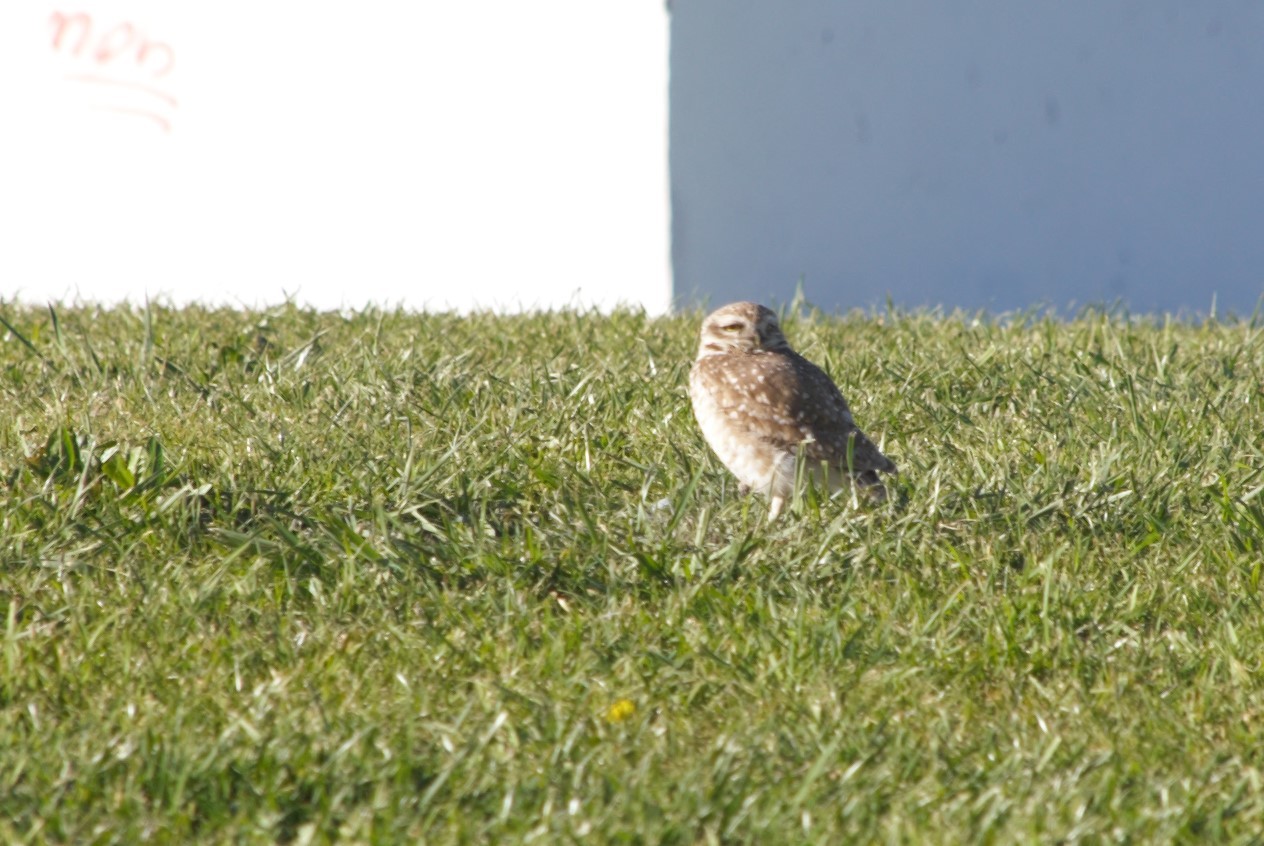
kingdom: Animalia
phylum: Chordata
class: Aves
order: Strigiformes
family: Strigidae
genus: Athene
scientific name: Athene cunicularia
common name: Burrowing owl
